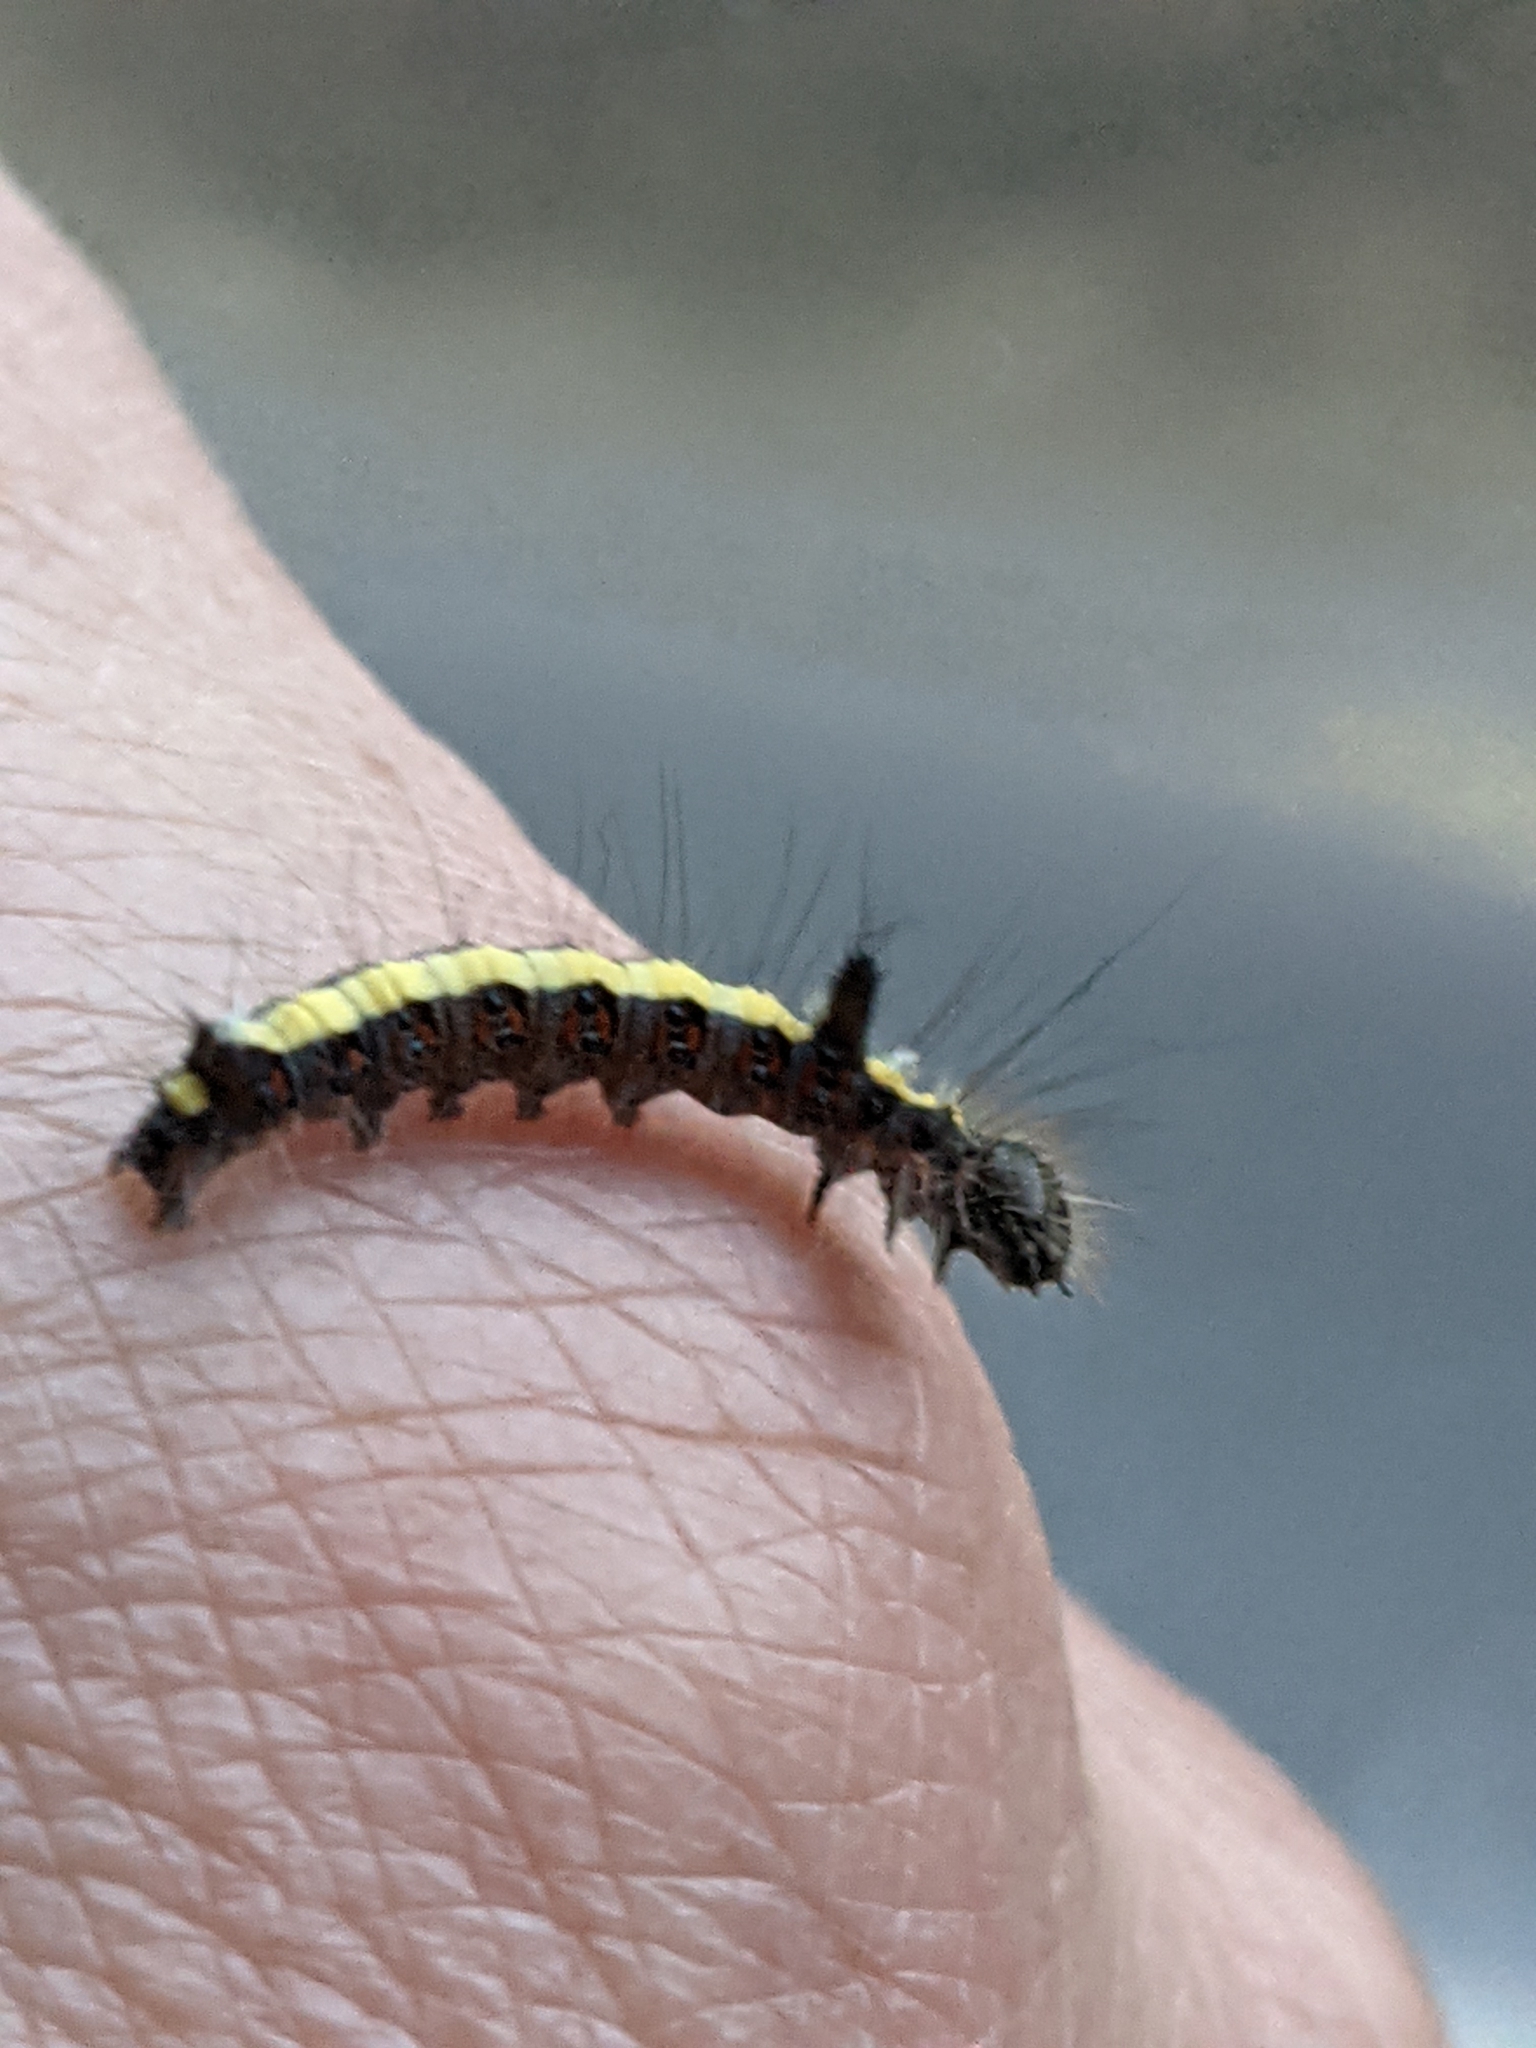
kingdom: Animalia
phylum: Arthropoda
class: Insecta
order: Lepidoptera
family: Noctuidae
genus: Acronicta
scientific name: Acronicta psi
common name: Grey dagger
